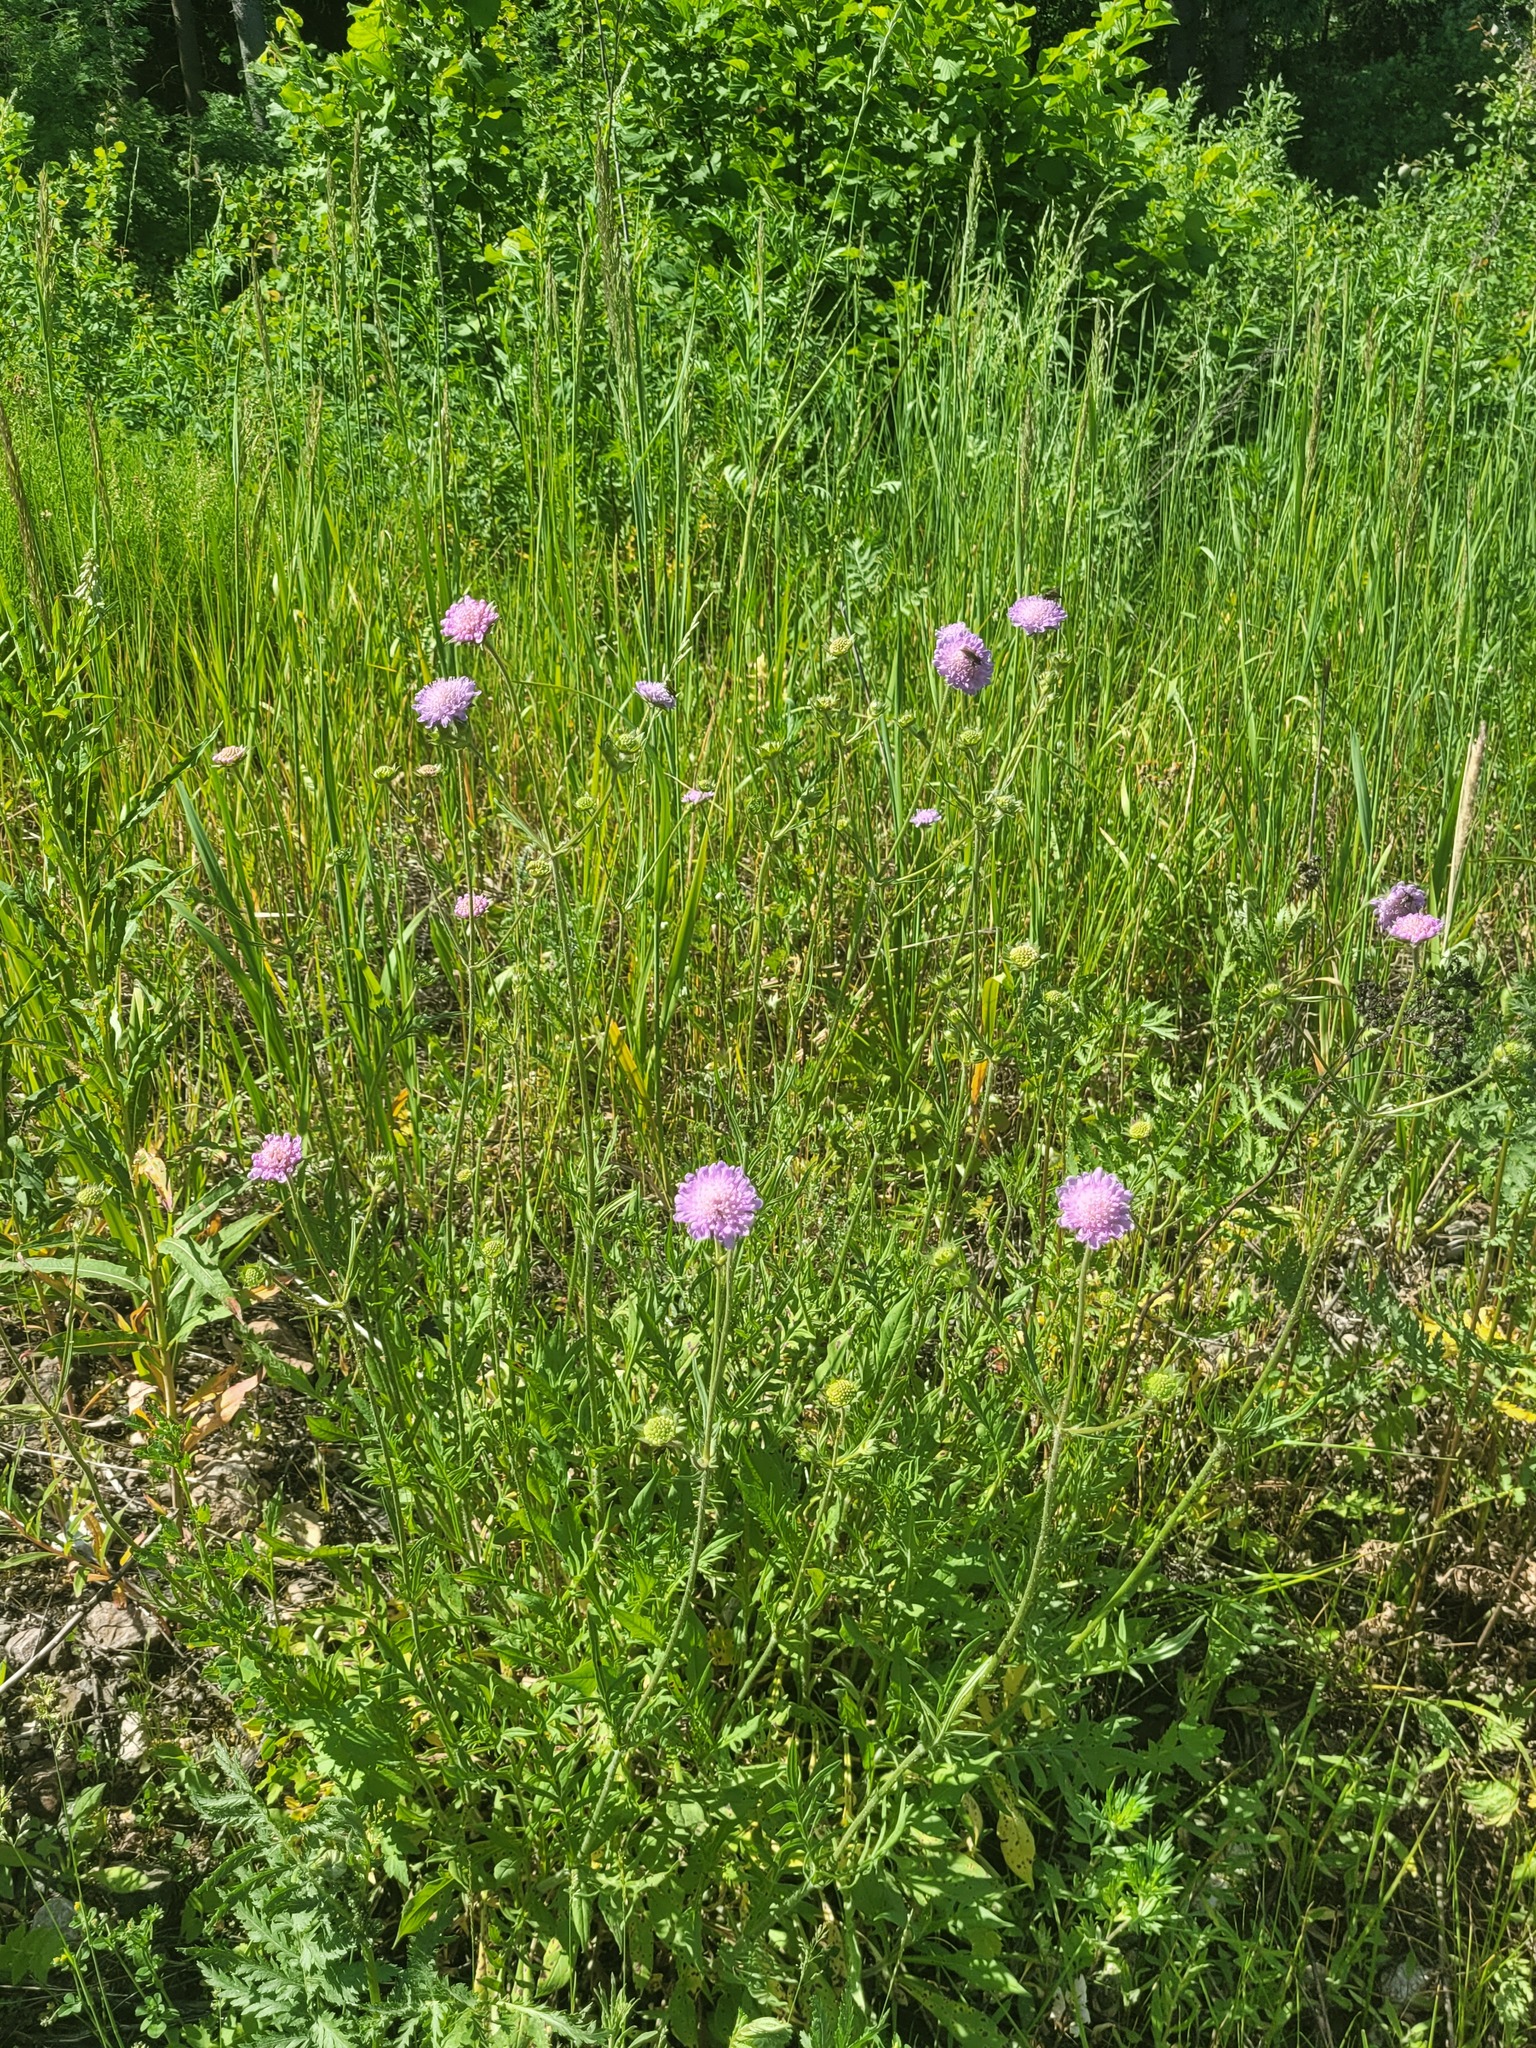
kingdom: Plantae
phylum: Tracheophyta
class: Magnoliopsida
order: Dipsacales
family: Caprifoliaceae
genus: Knautia
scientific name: Knautia arvensis
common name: Field scabiosa
